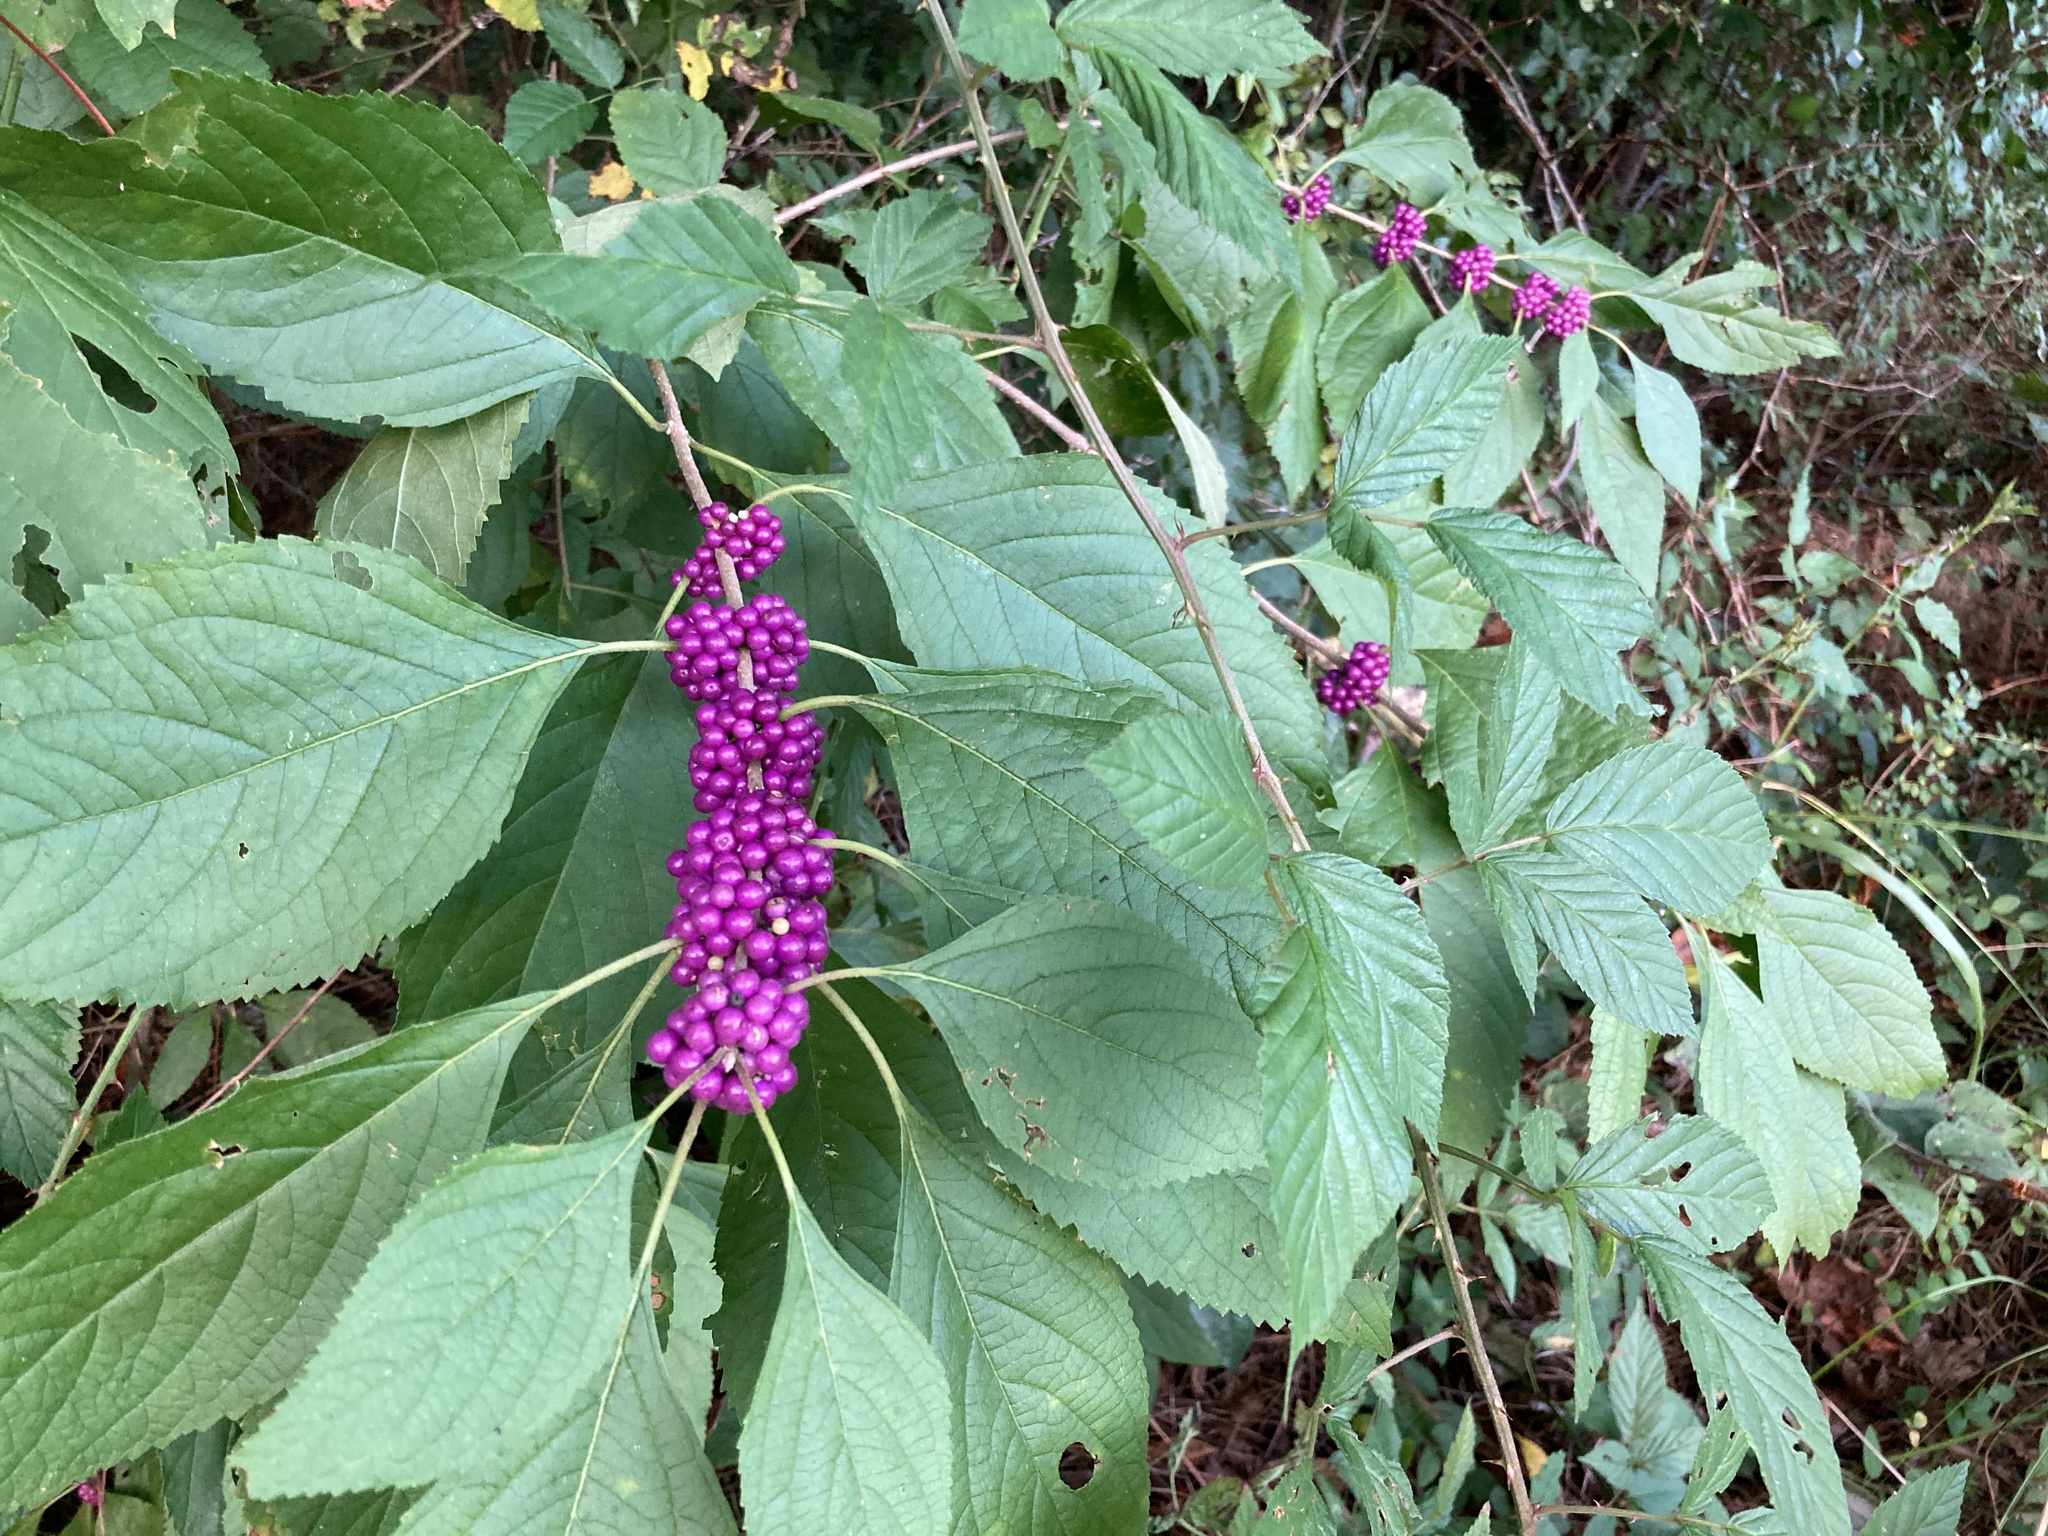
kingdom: Plantae
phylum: Tracheophyta
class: Magnoliopsida
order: Lamiales
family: Lamiaceae
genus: Callicarpa
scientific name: Callicarpa americana
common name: American beautyberry
